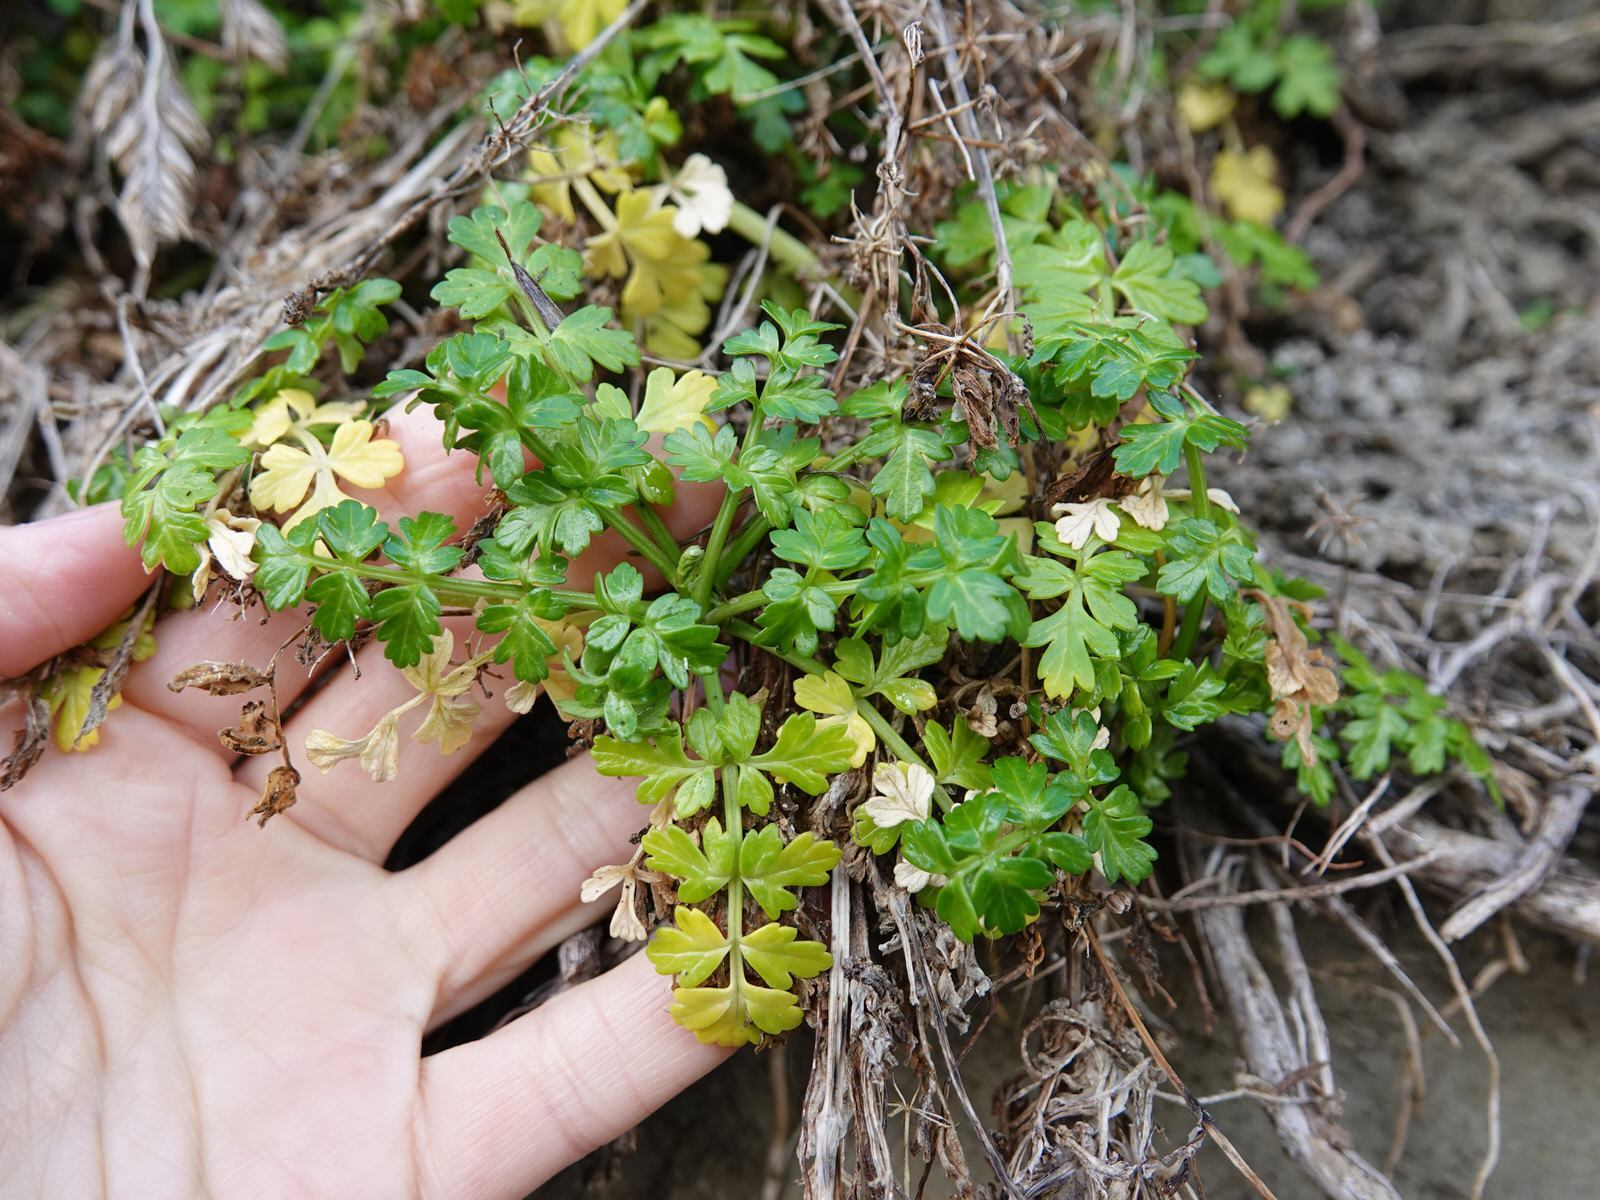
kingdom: Plantae
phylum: Tracheophyta
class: Magnoliopsida
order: Apiales
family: Apiaceae
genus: Apium
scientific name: Apium prostratum
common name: Prostrate marshwort
